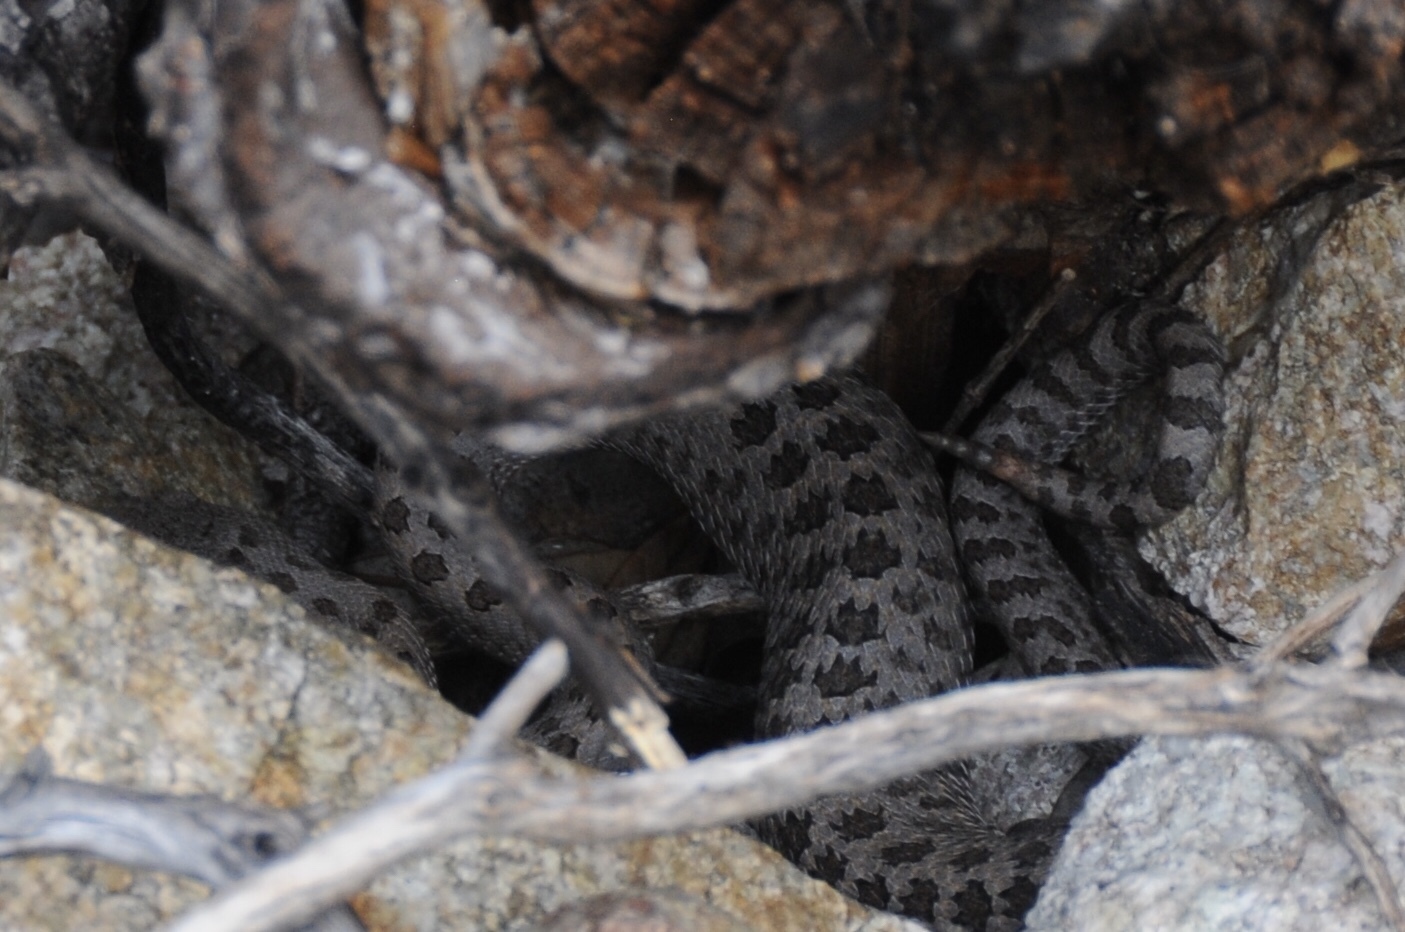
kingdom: Animalia
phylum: Chordata
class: Squamata
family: Viperidae
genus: Crotalus
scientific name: Crotalus pricei
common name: Twin-spotted rattlesnake
